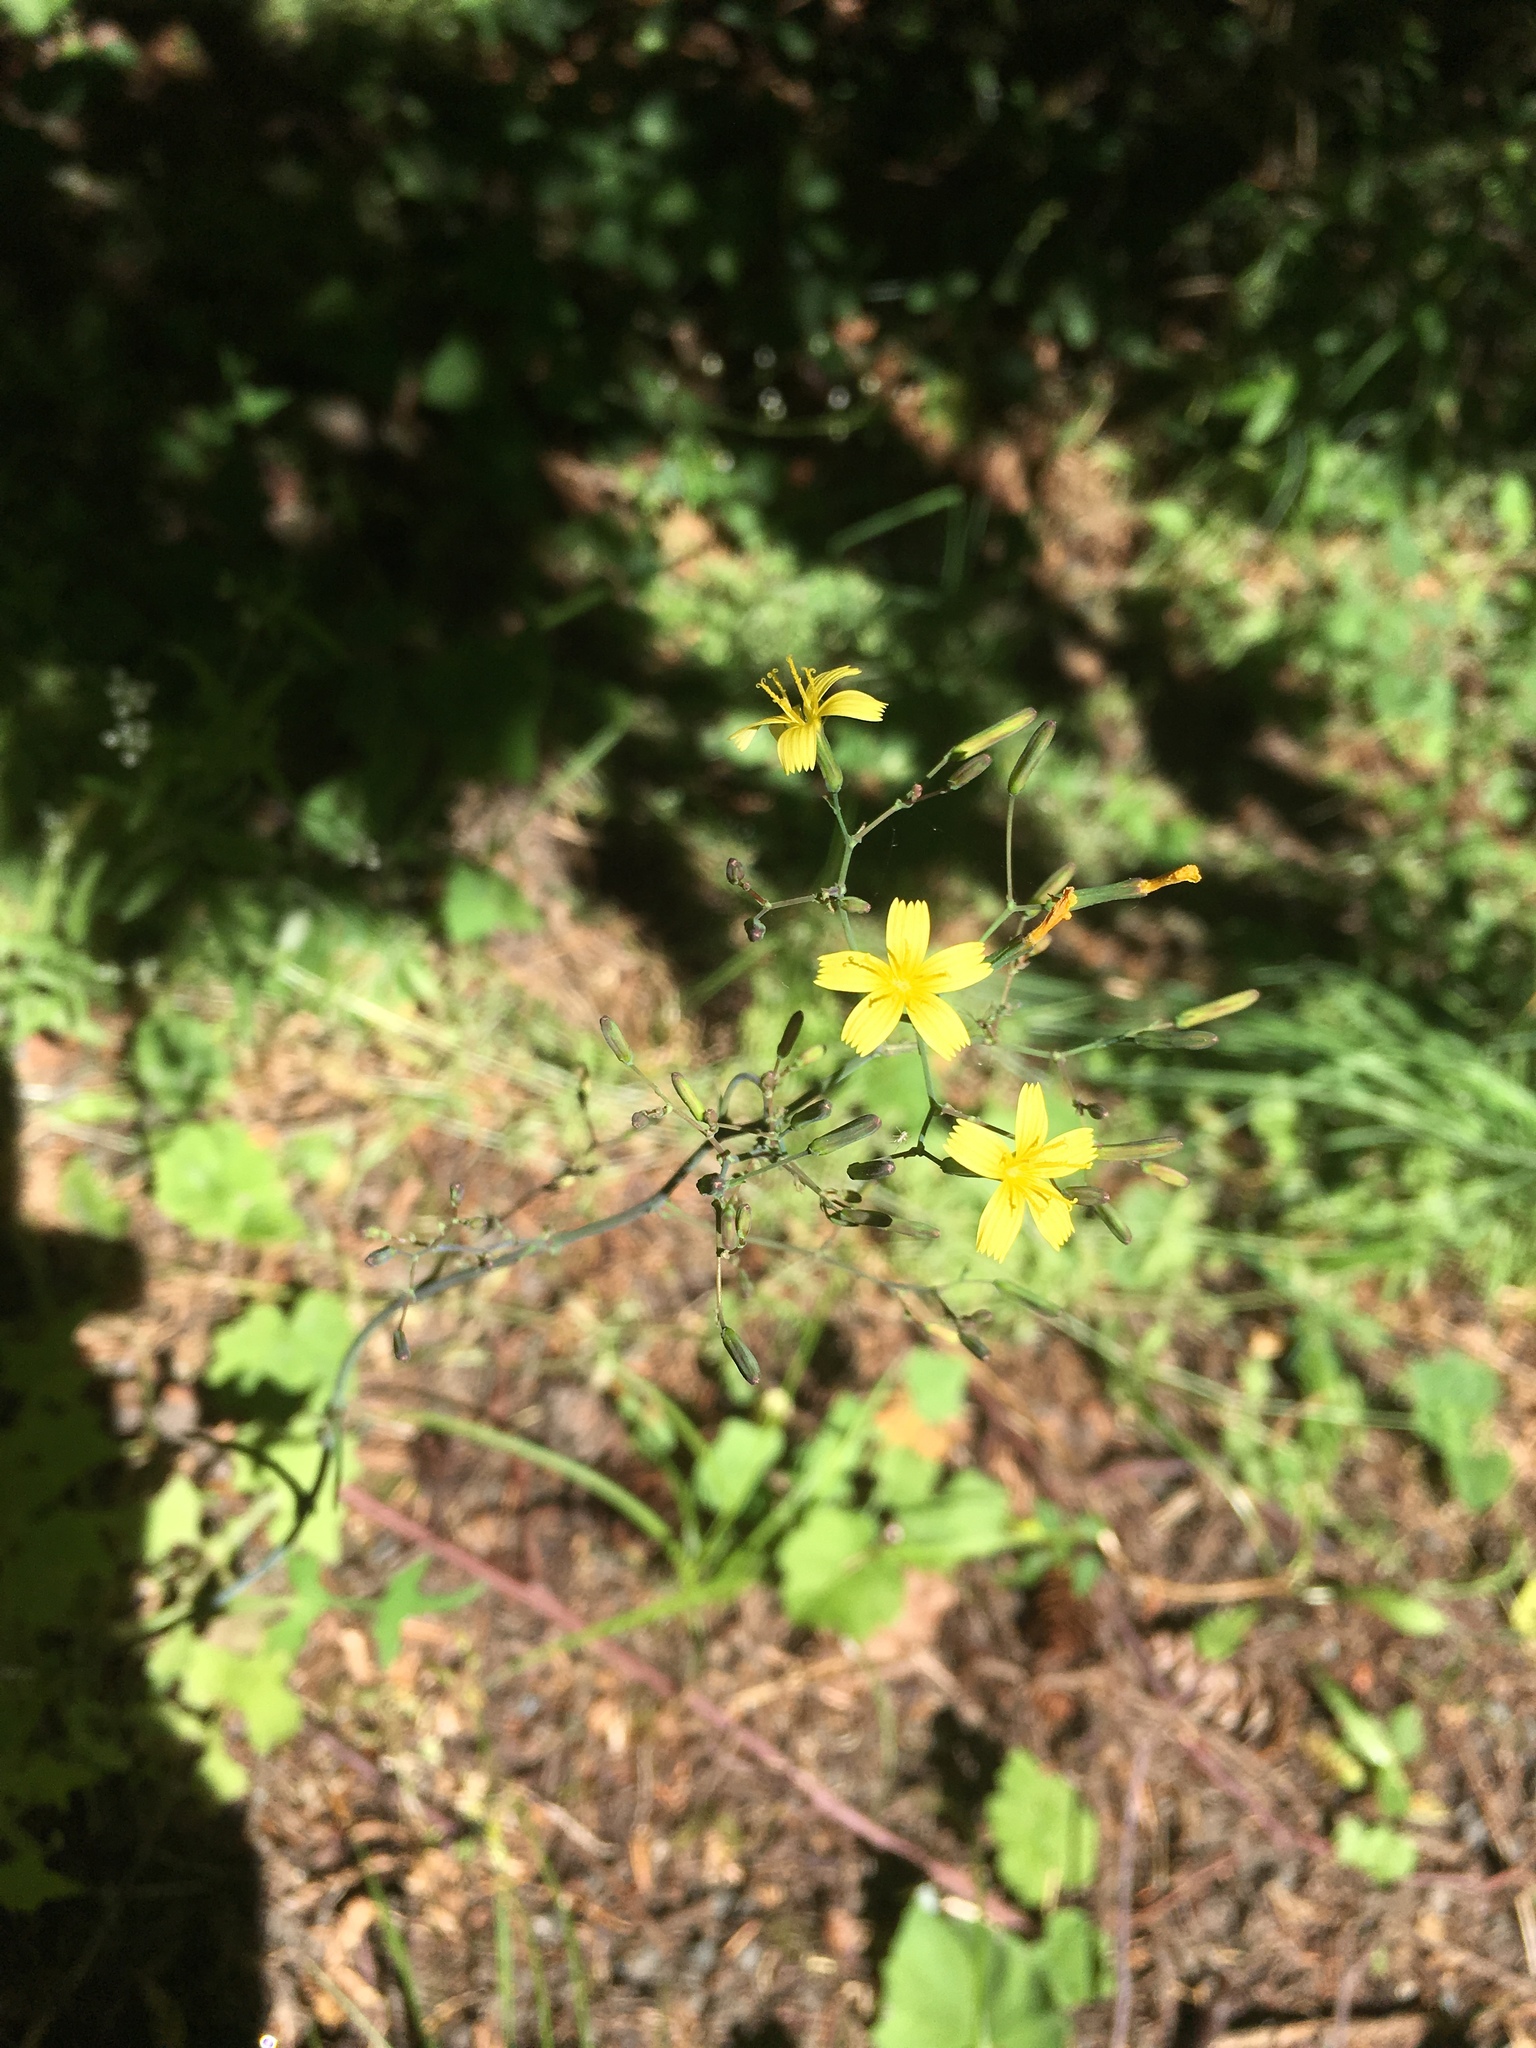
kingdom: Plantae
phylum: Tracheophyta
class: Magnoliopsida
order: Asterales
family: Asteraceae
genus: Mycelis
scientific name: Mycelis muralis
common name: Wall lettuce
